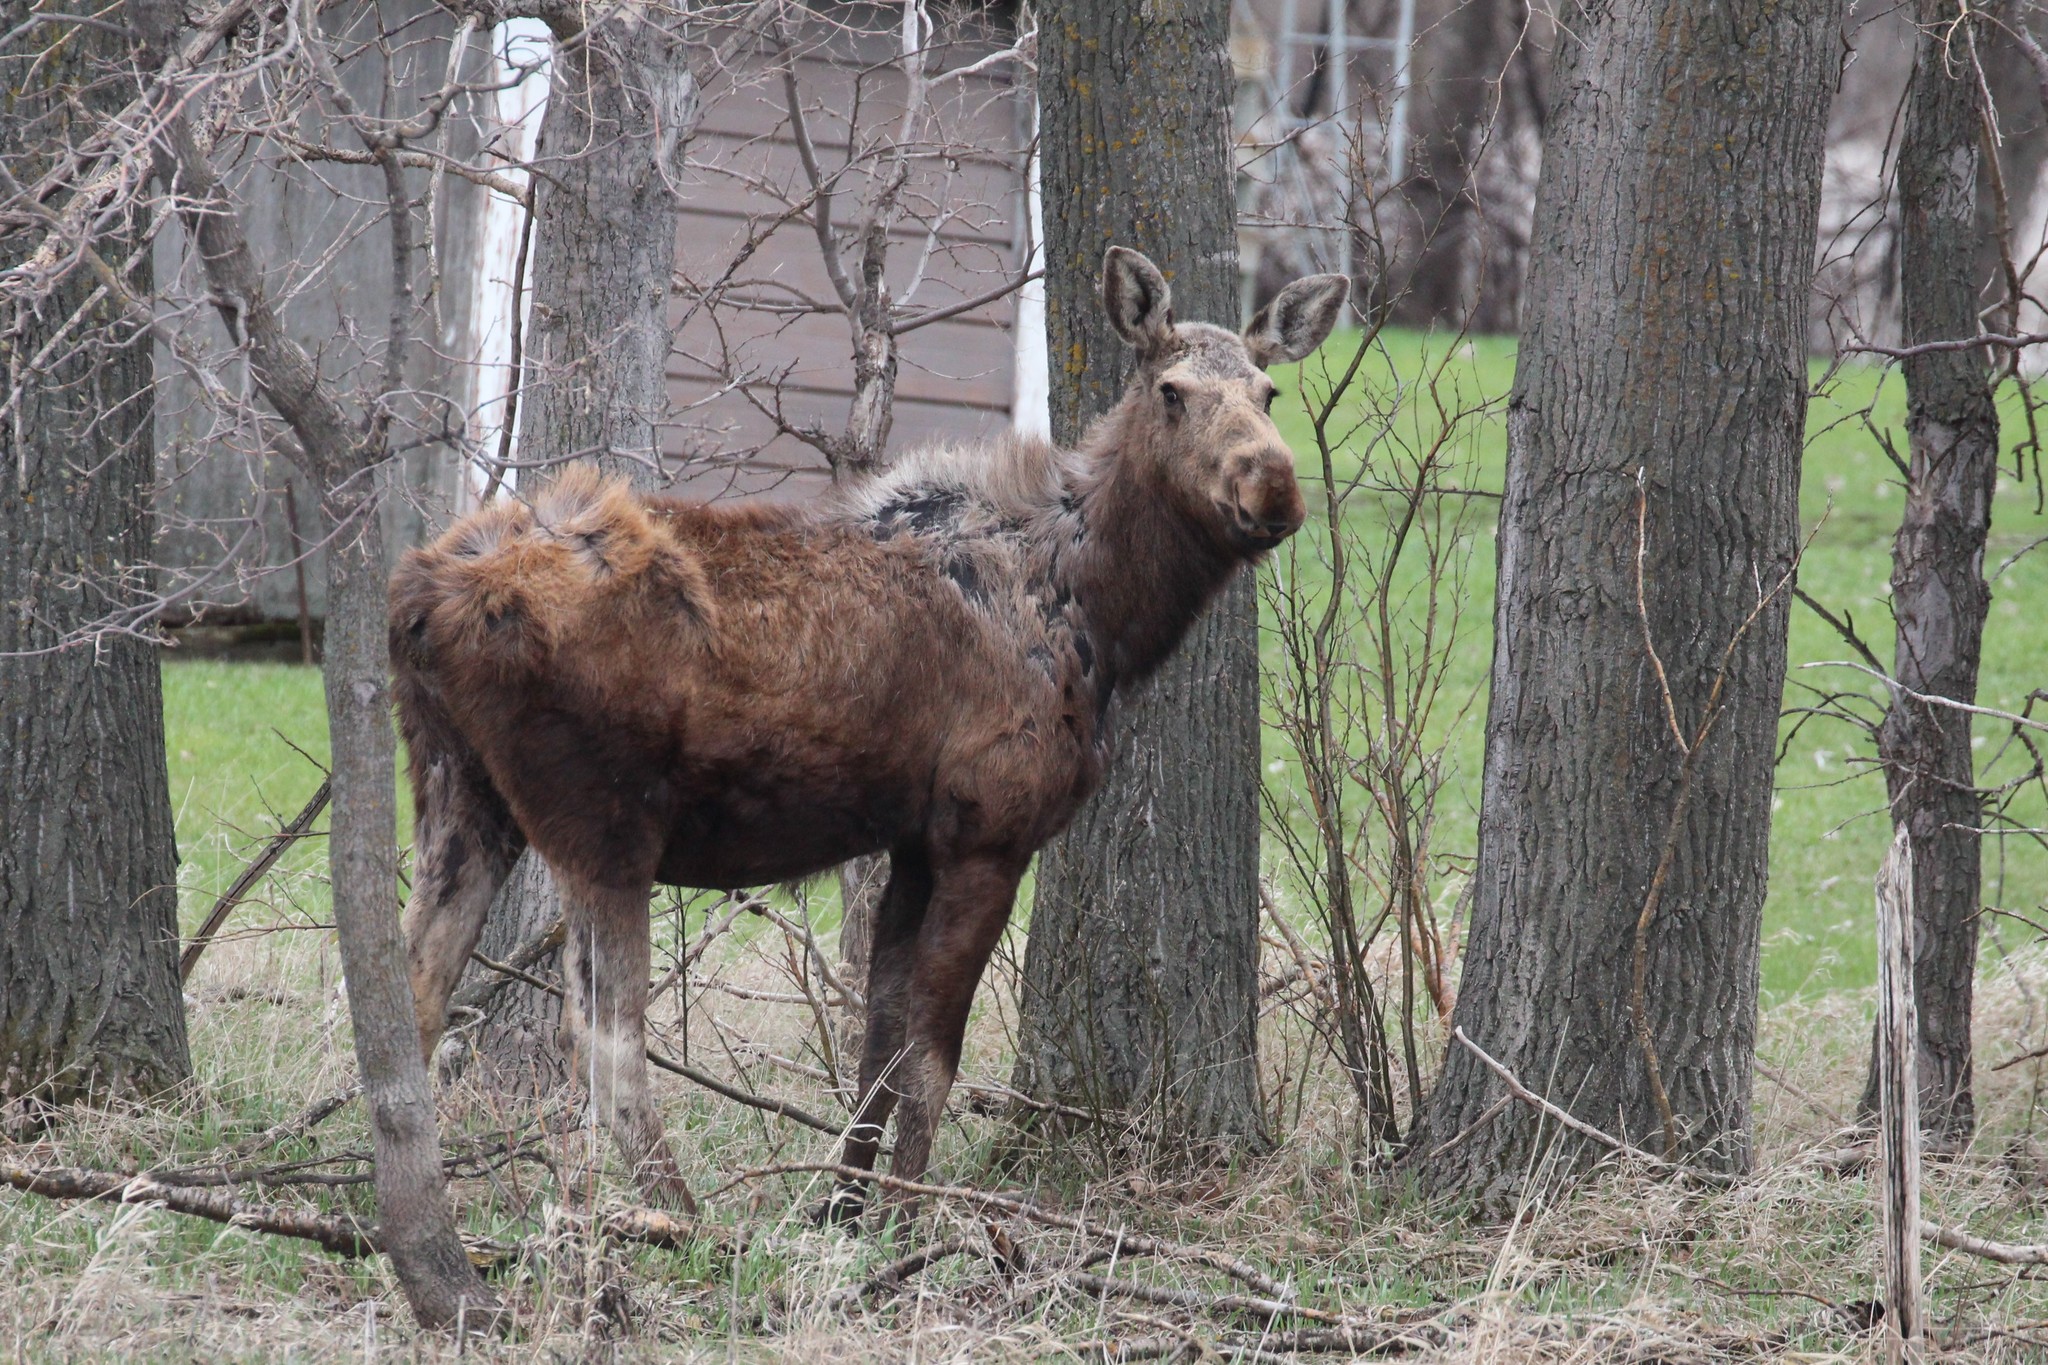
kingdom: Animalia
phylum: Chordata
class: Mammalia
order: Artiodactyla
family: Cervidae
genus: Alces
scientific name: Alces alces
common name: Moose
